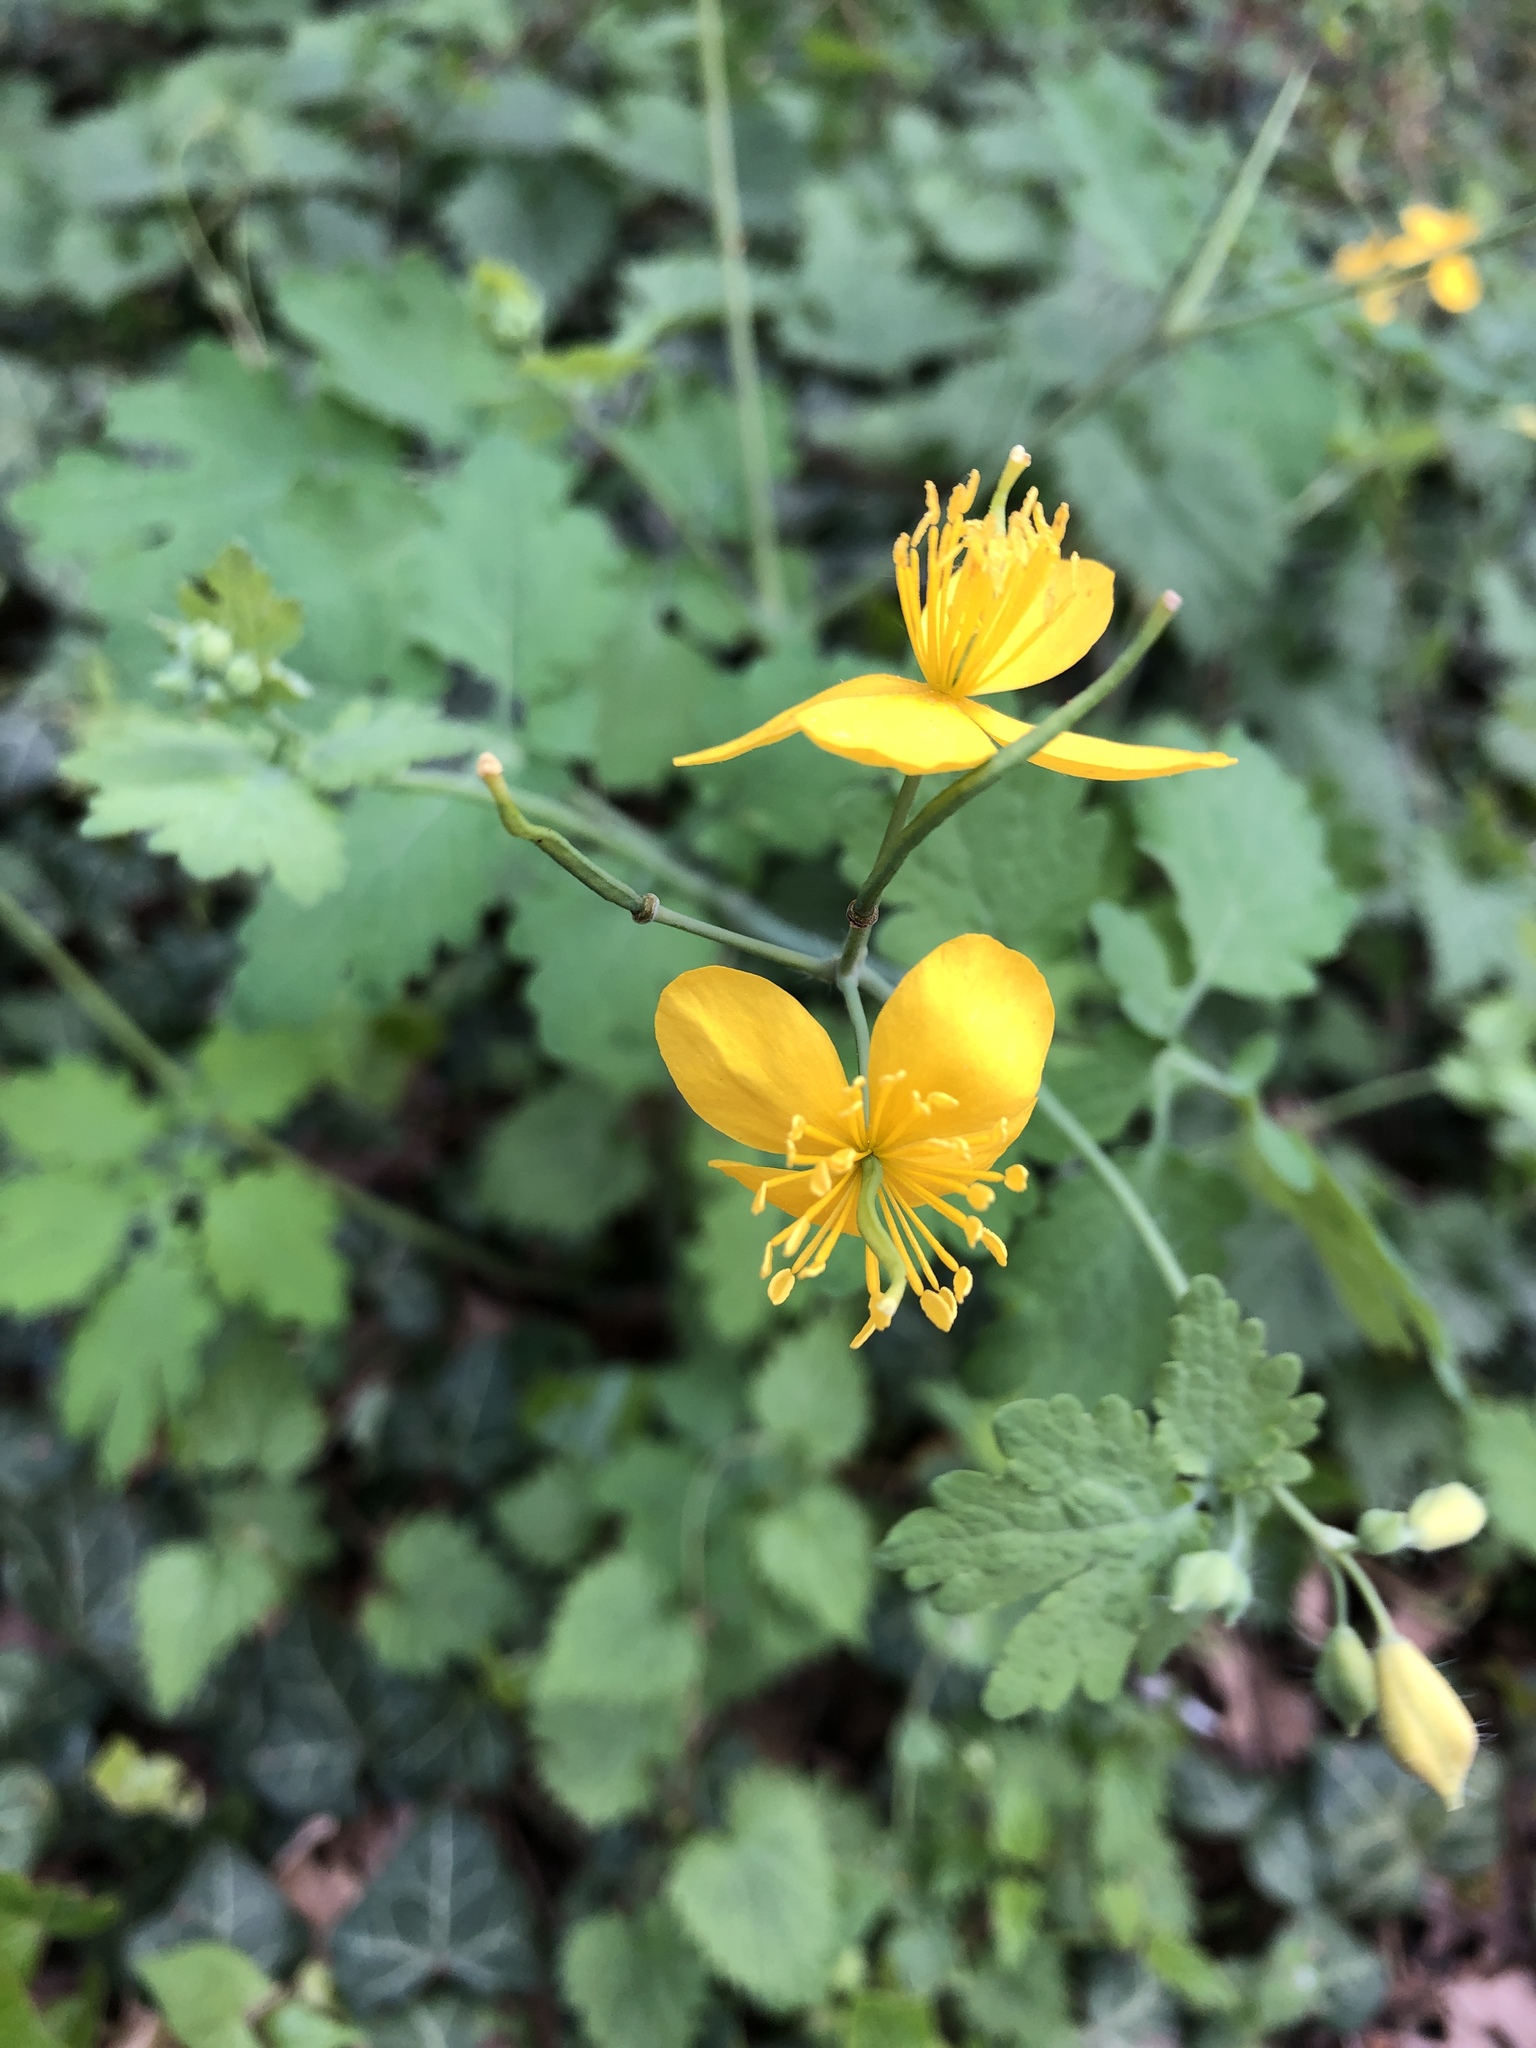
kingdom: Plantae
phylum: Tracheophyta
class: Magnoliopsida
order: Ranunculales
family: Papaveraceae
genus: Chelidonium
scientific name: Chelidonium majus
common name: Greater celandine
